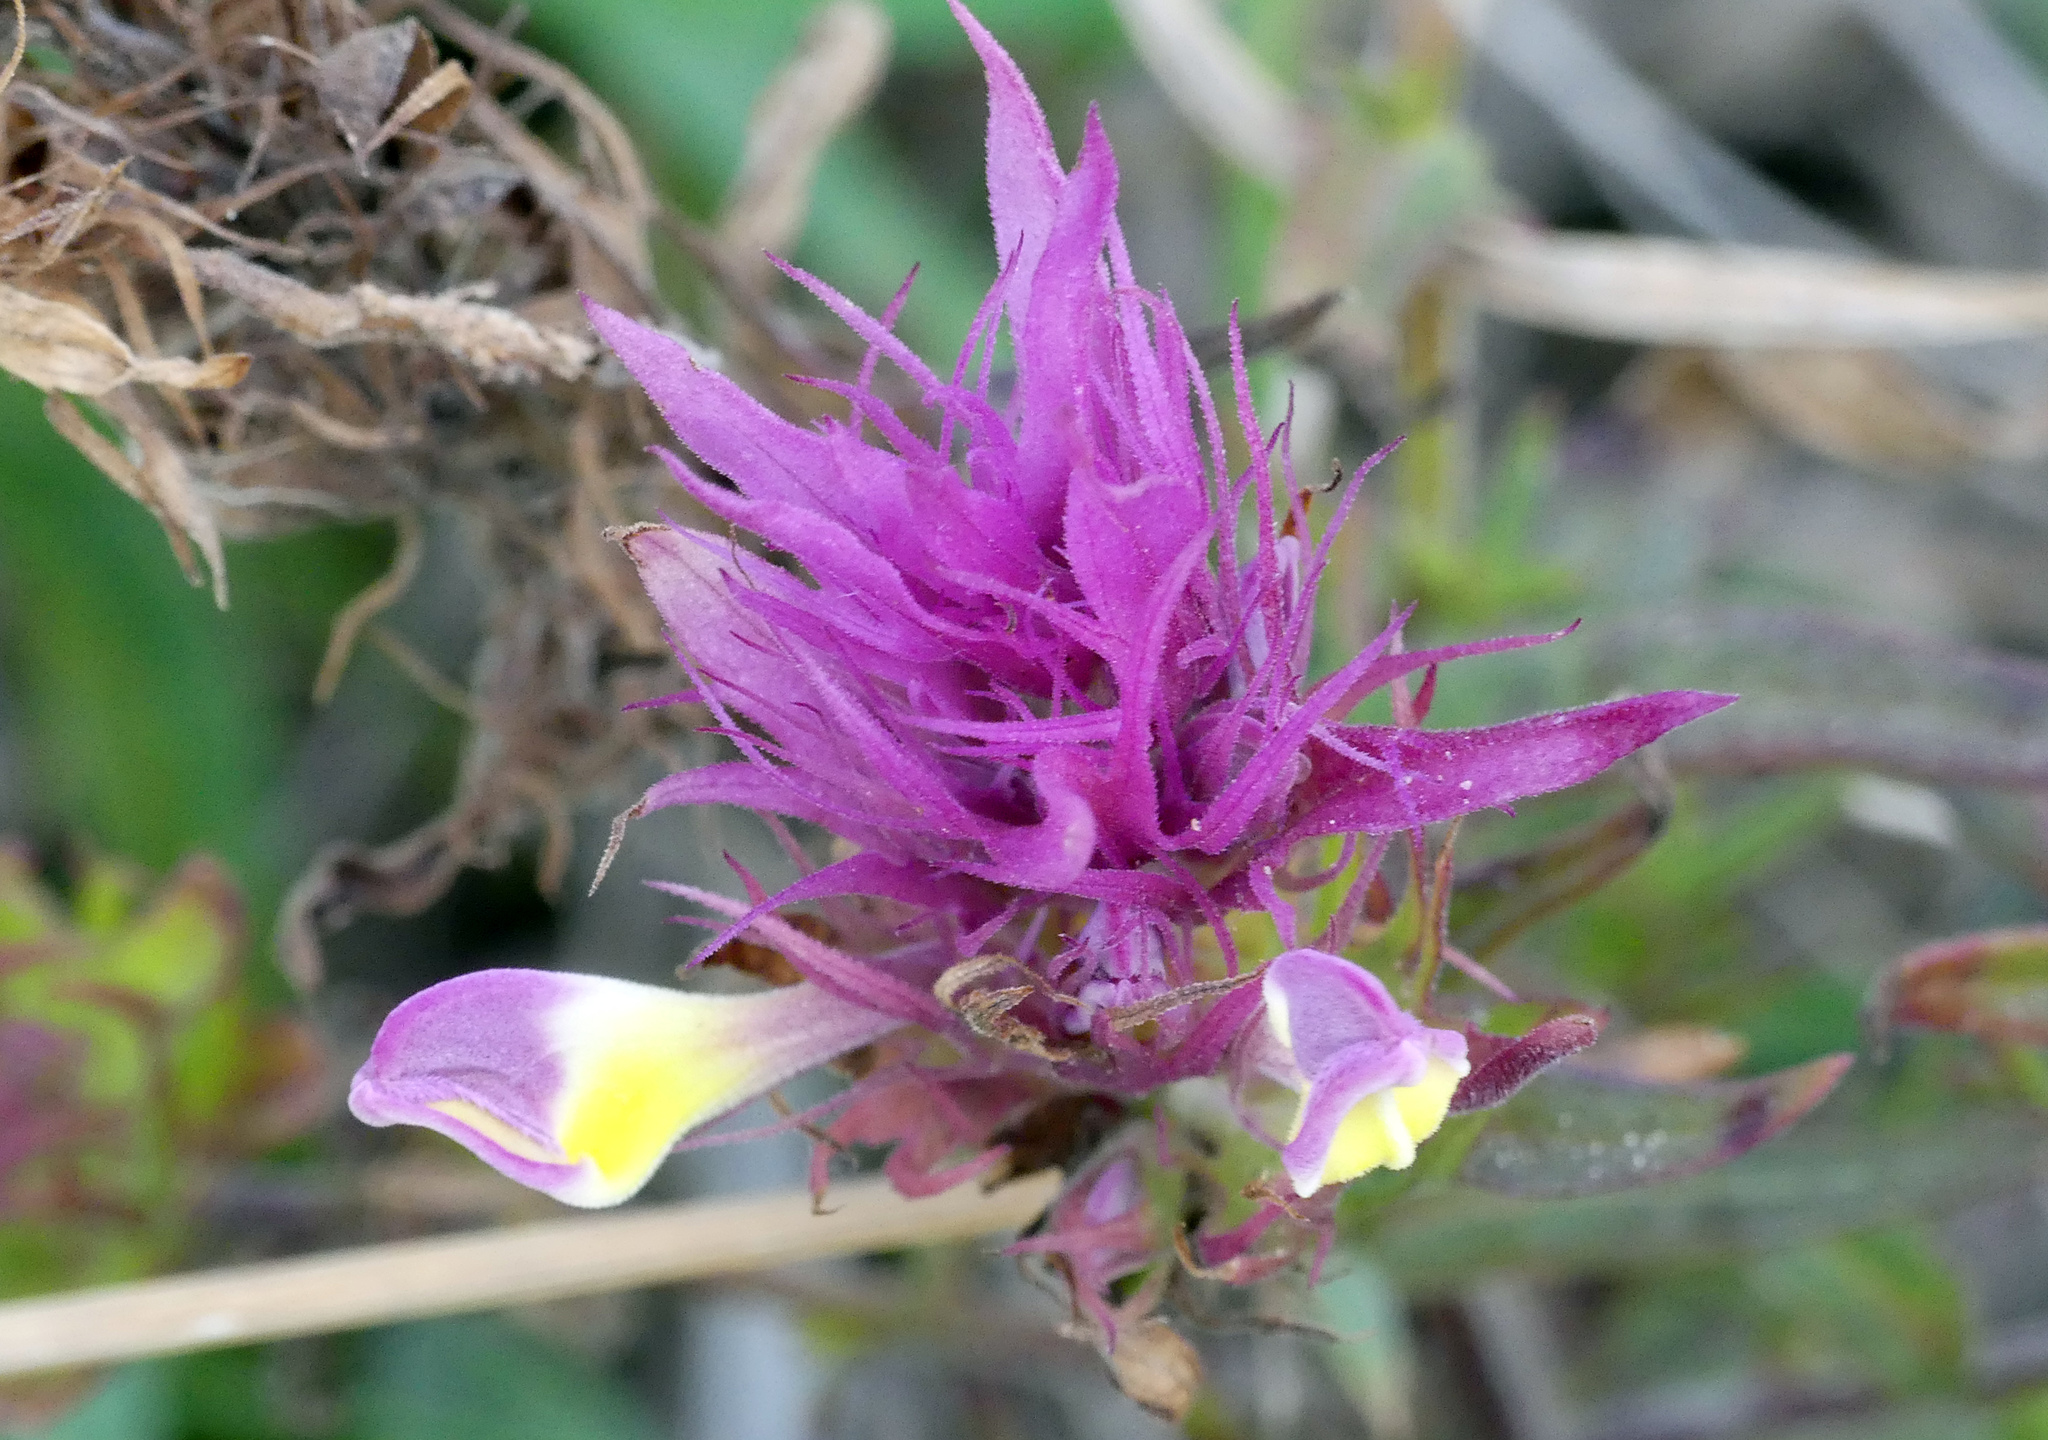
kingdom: Plantae
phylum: Tracheophyta
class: Magnoliopsida
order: Lamiales
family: Orobanchaceae
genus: Melampyrum
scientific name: Melampyrum arvense
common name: Field cow-wheat
